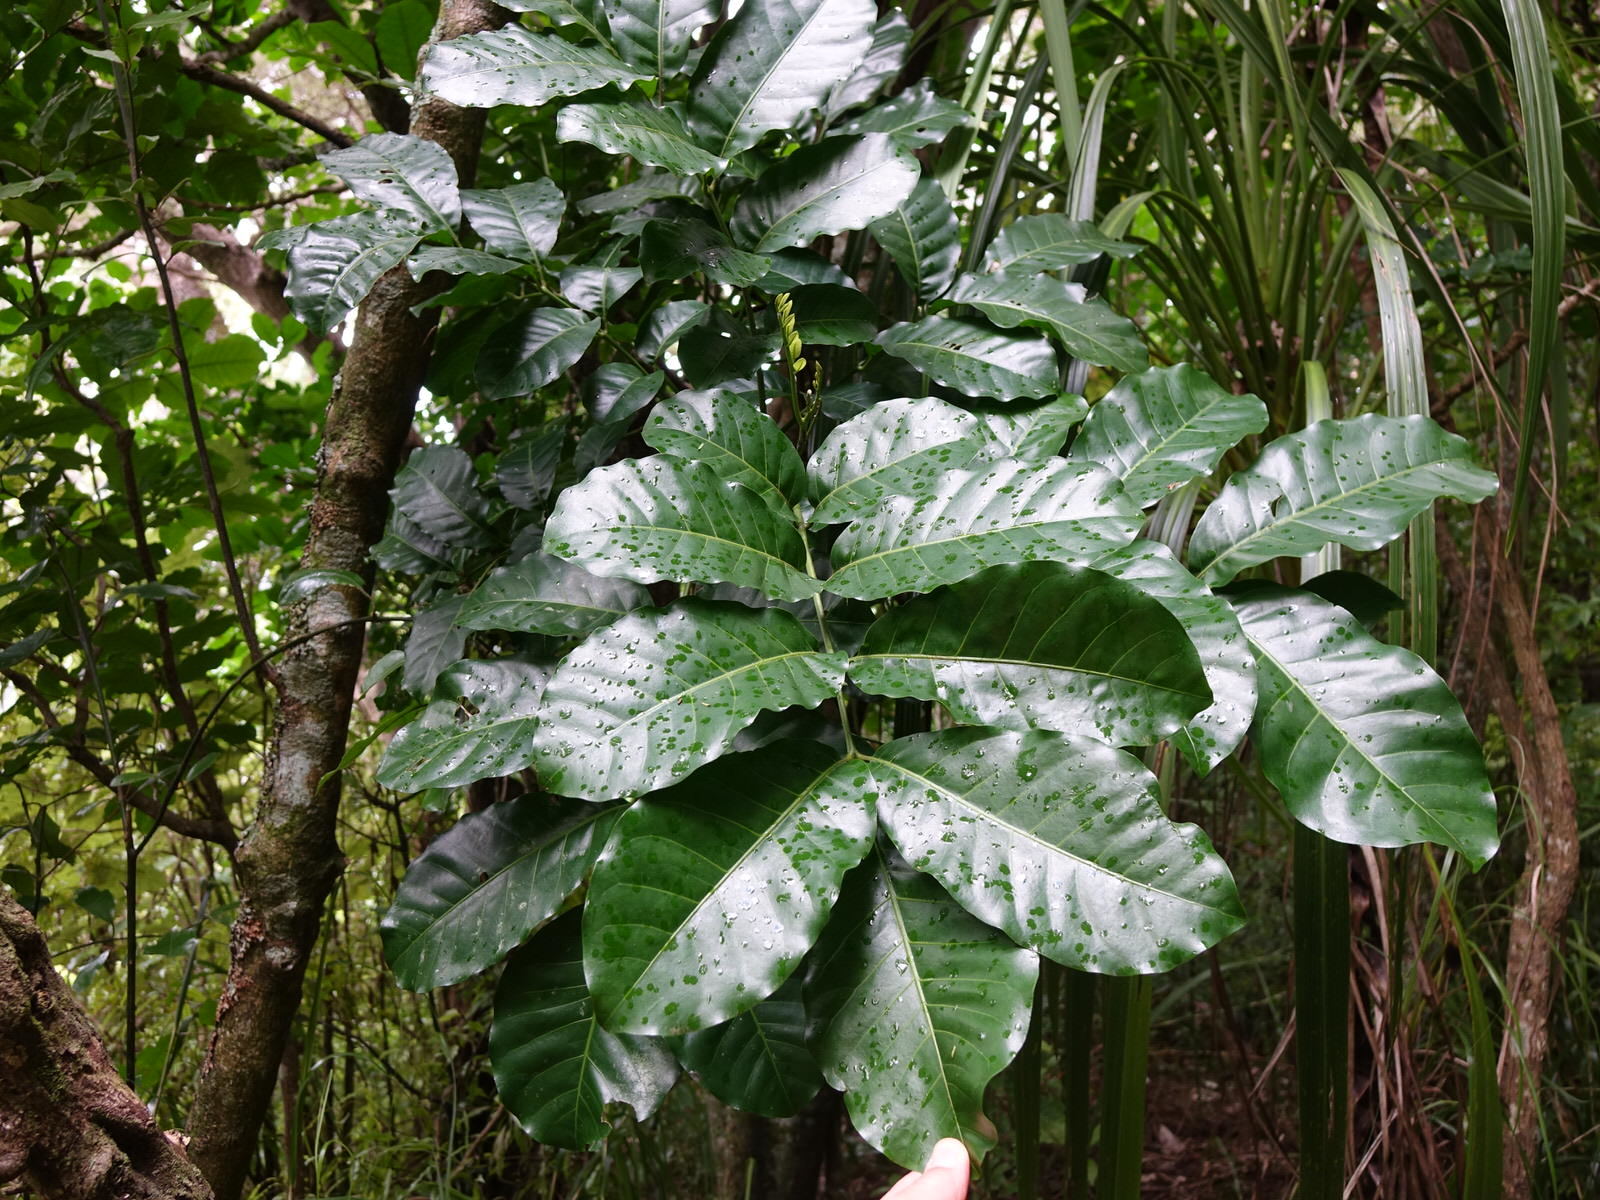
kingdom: Plantae
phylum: Tracheophyta
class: Magnoliopsida
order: Sapindales
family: Meliaceae
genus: Didymocheton
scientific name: Didymocheton spectabilis
